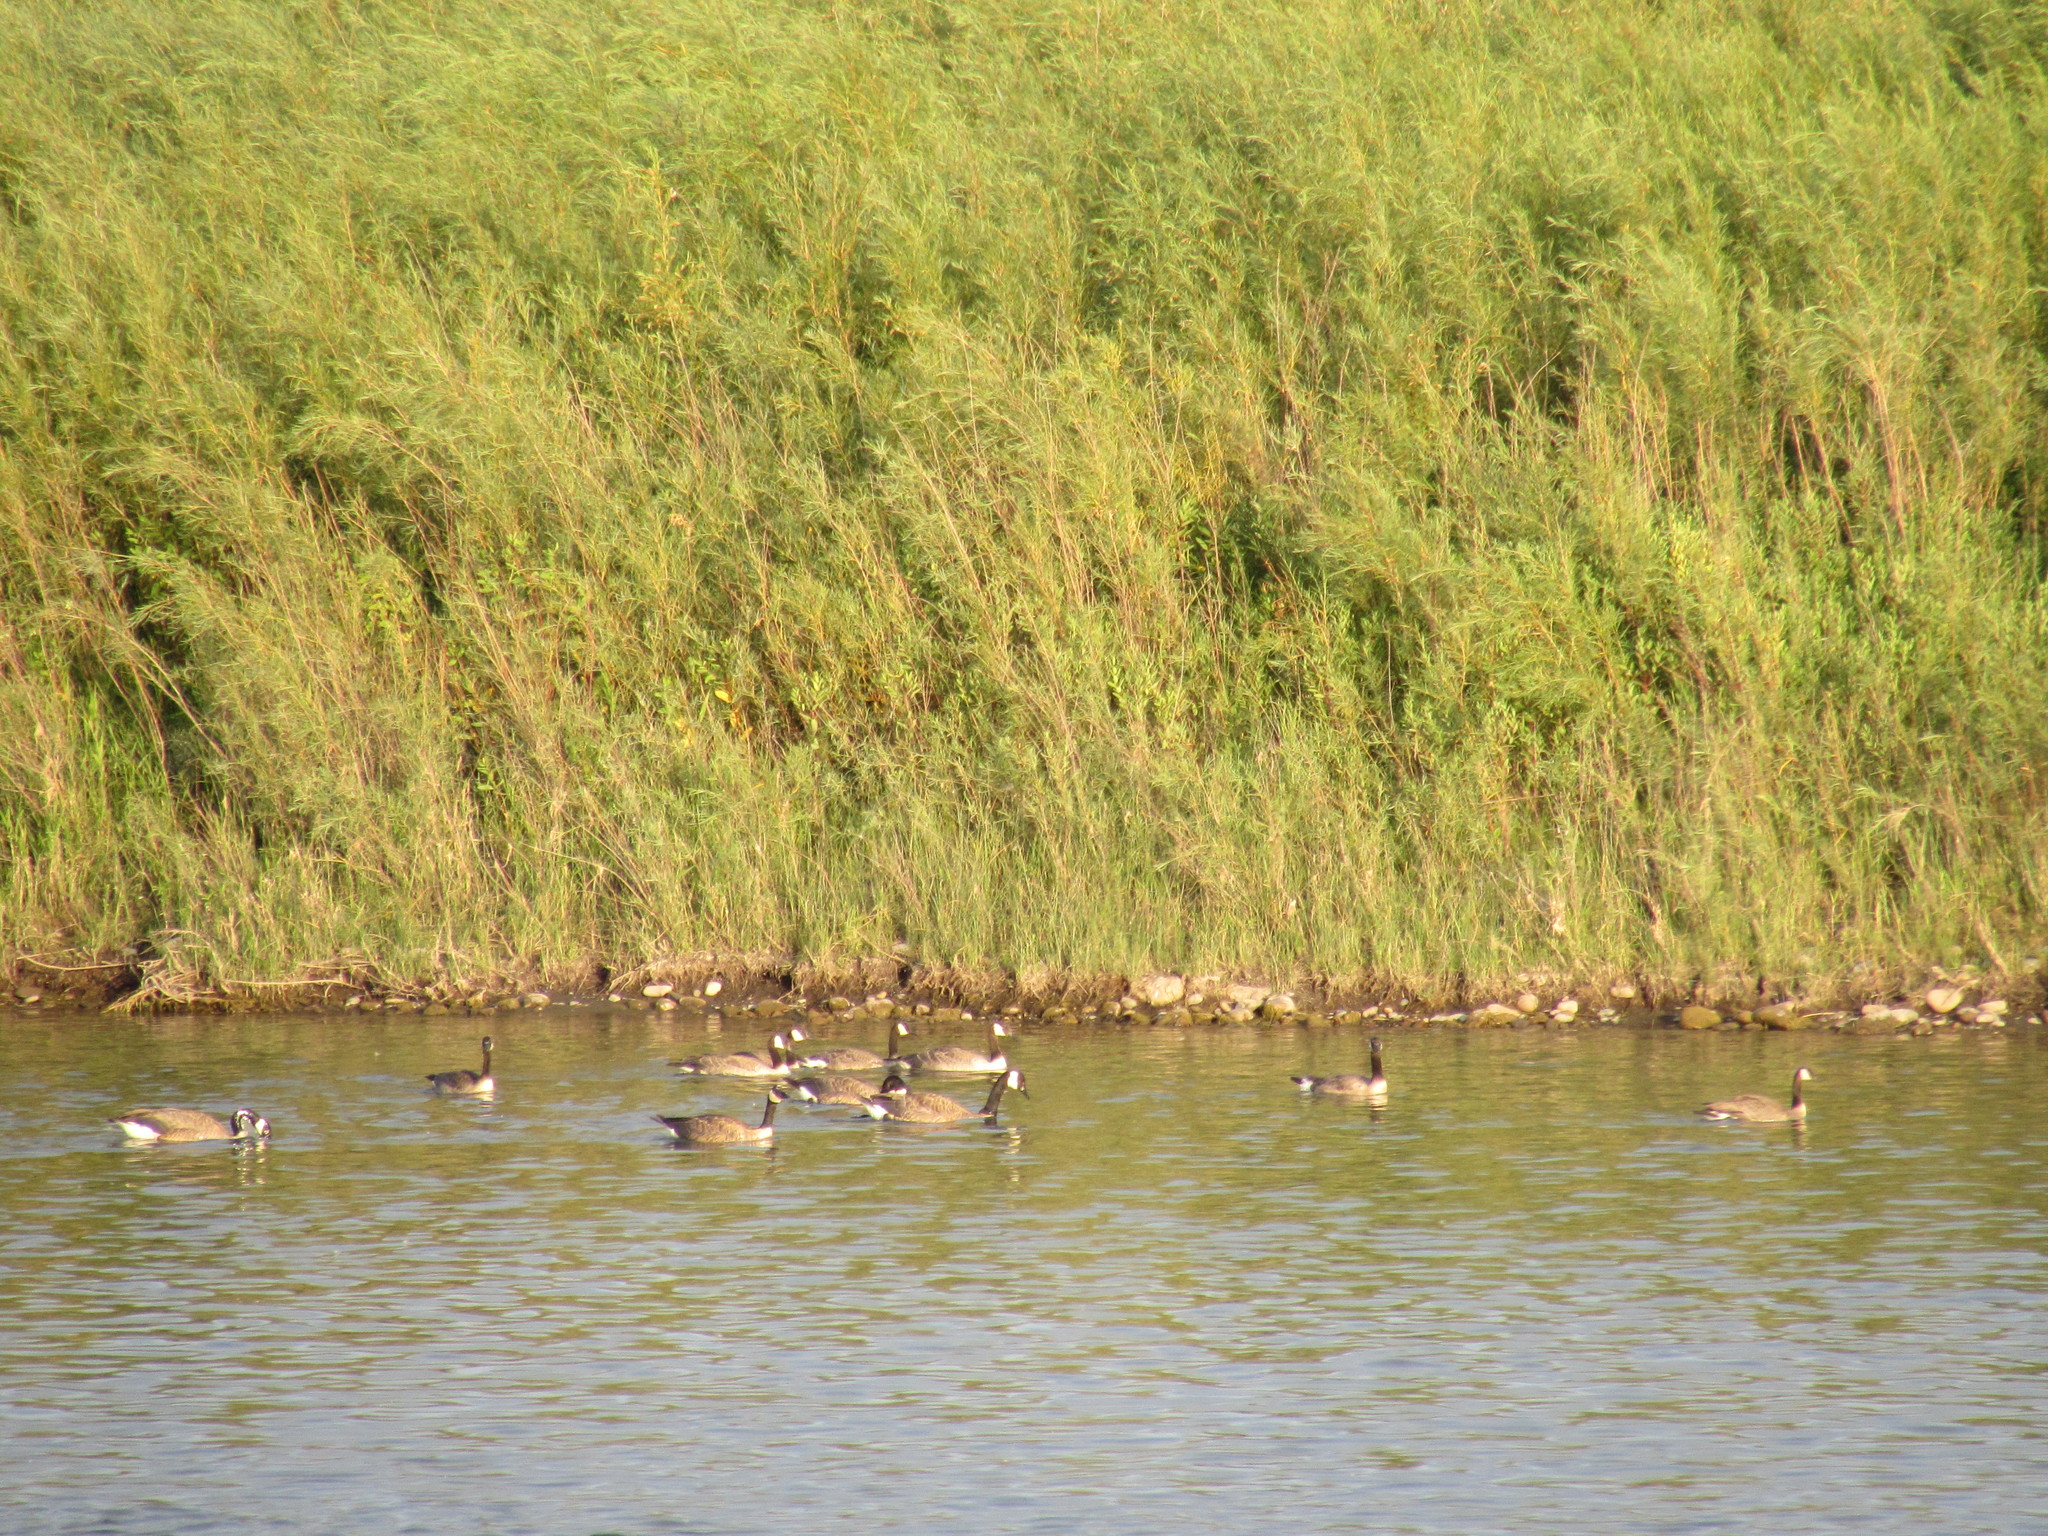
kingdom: Animalia
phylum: Chordata
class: Aves
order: Anseriformes
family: Anatidae
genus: Branta
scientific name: Branta canadensis
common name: Canada goose
